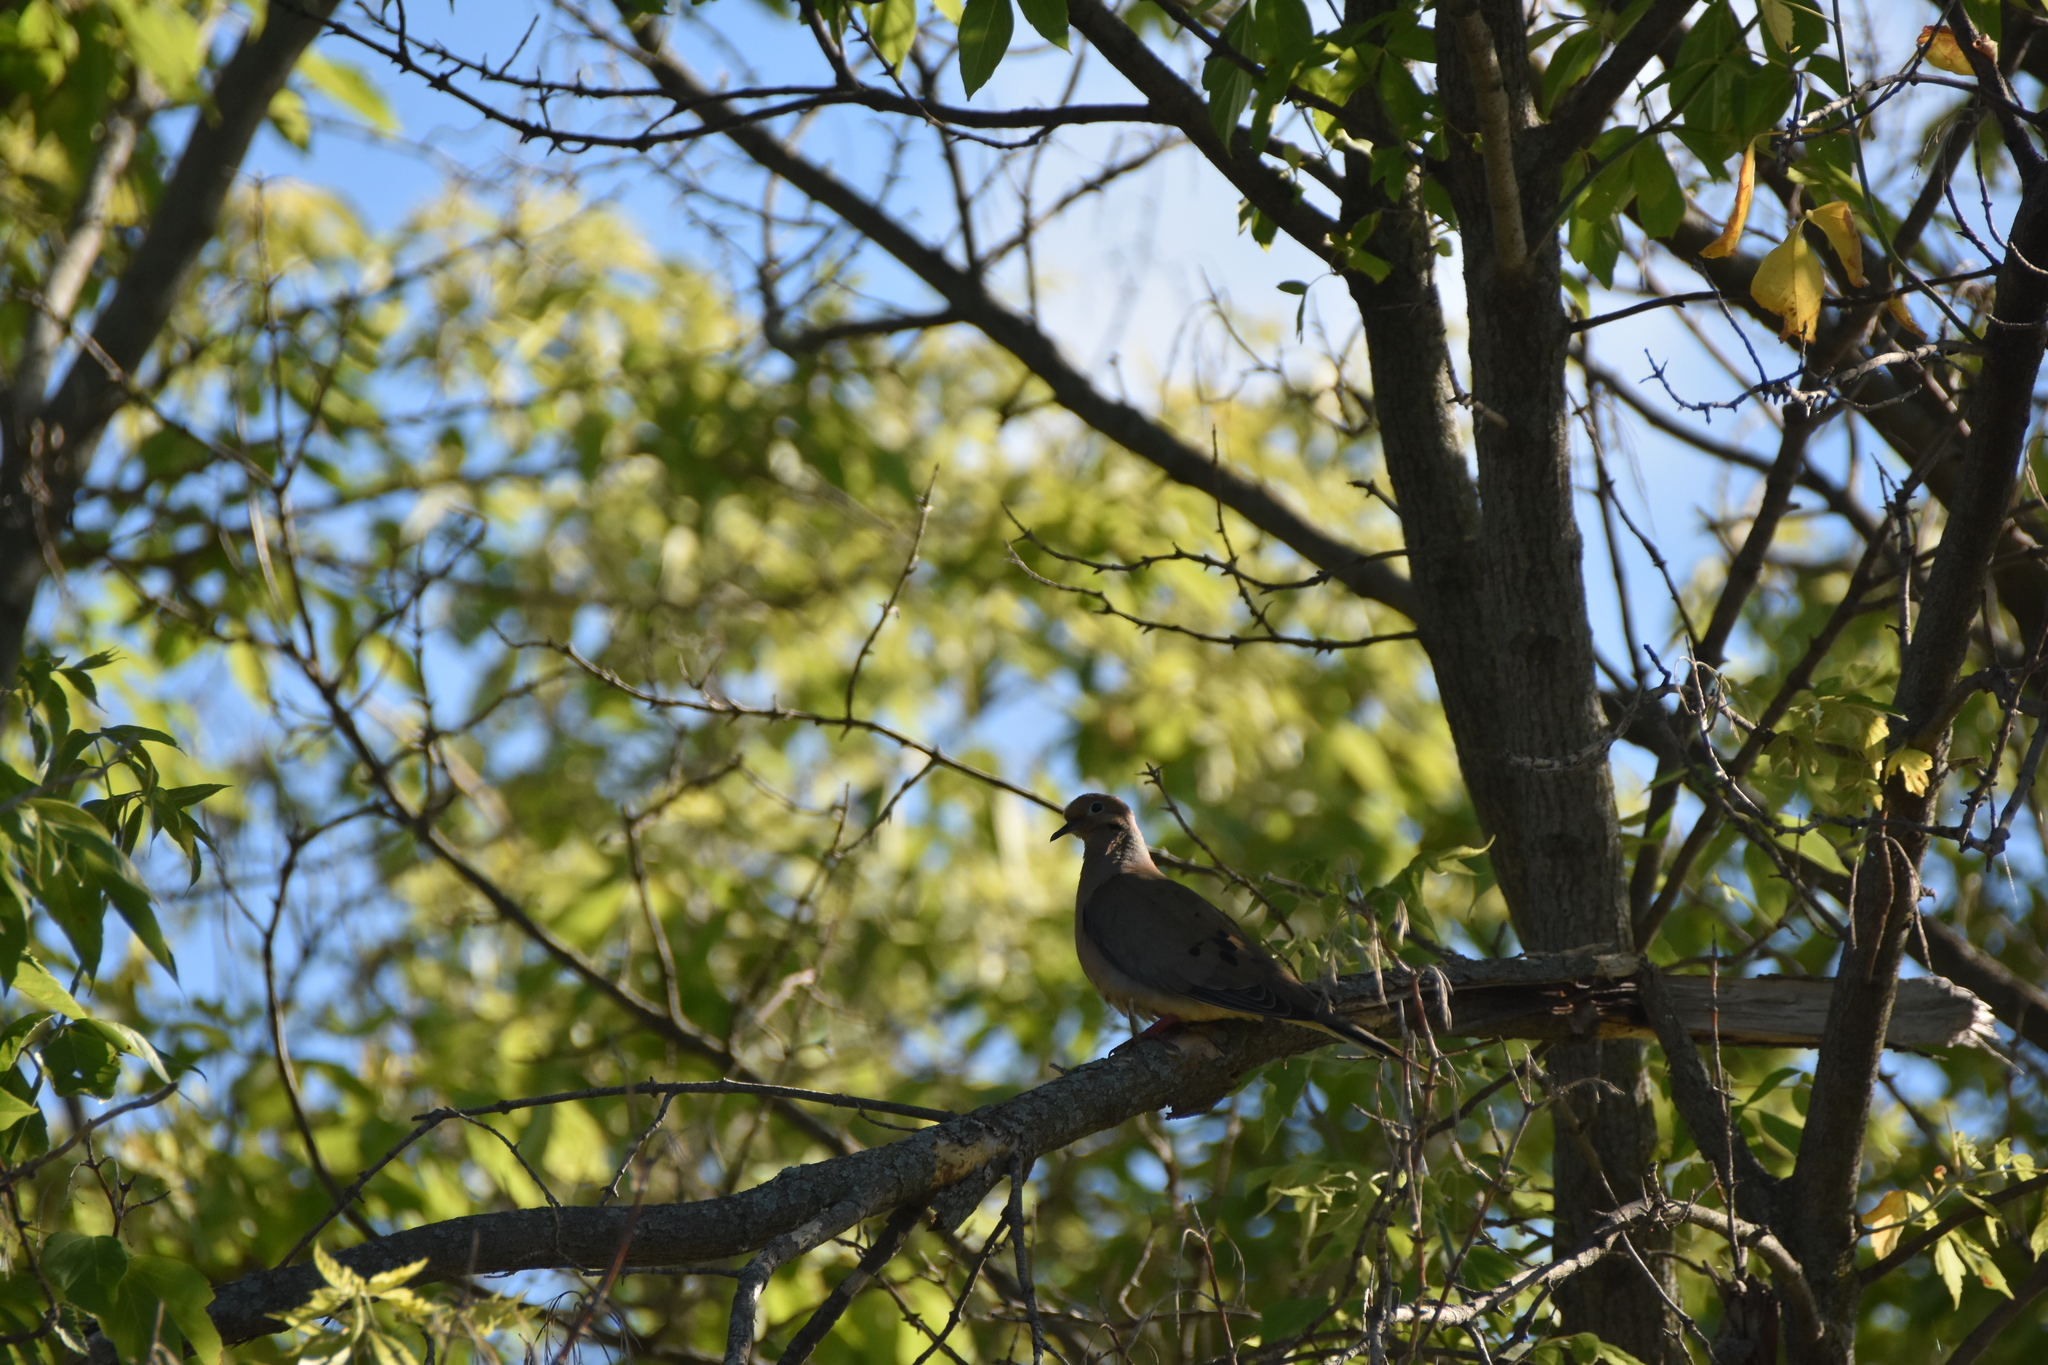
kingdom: Animalia
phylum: Chordata
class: Aves
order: Columbiformes
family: Columbidae
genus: Zenaida
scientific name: Zenaida macroura
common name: Mourning dove
